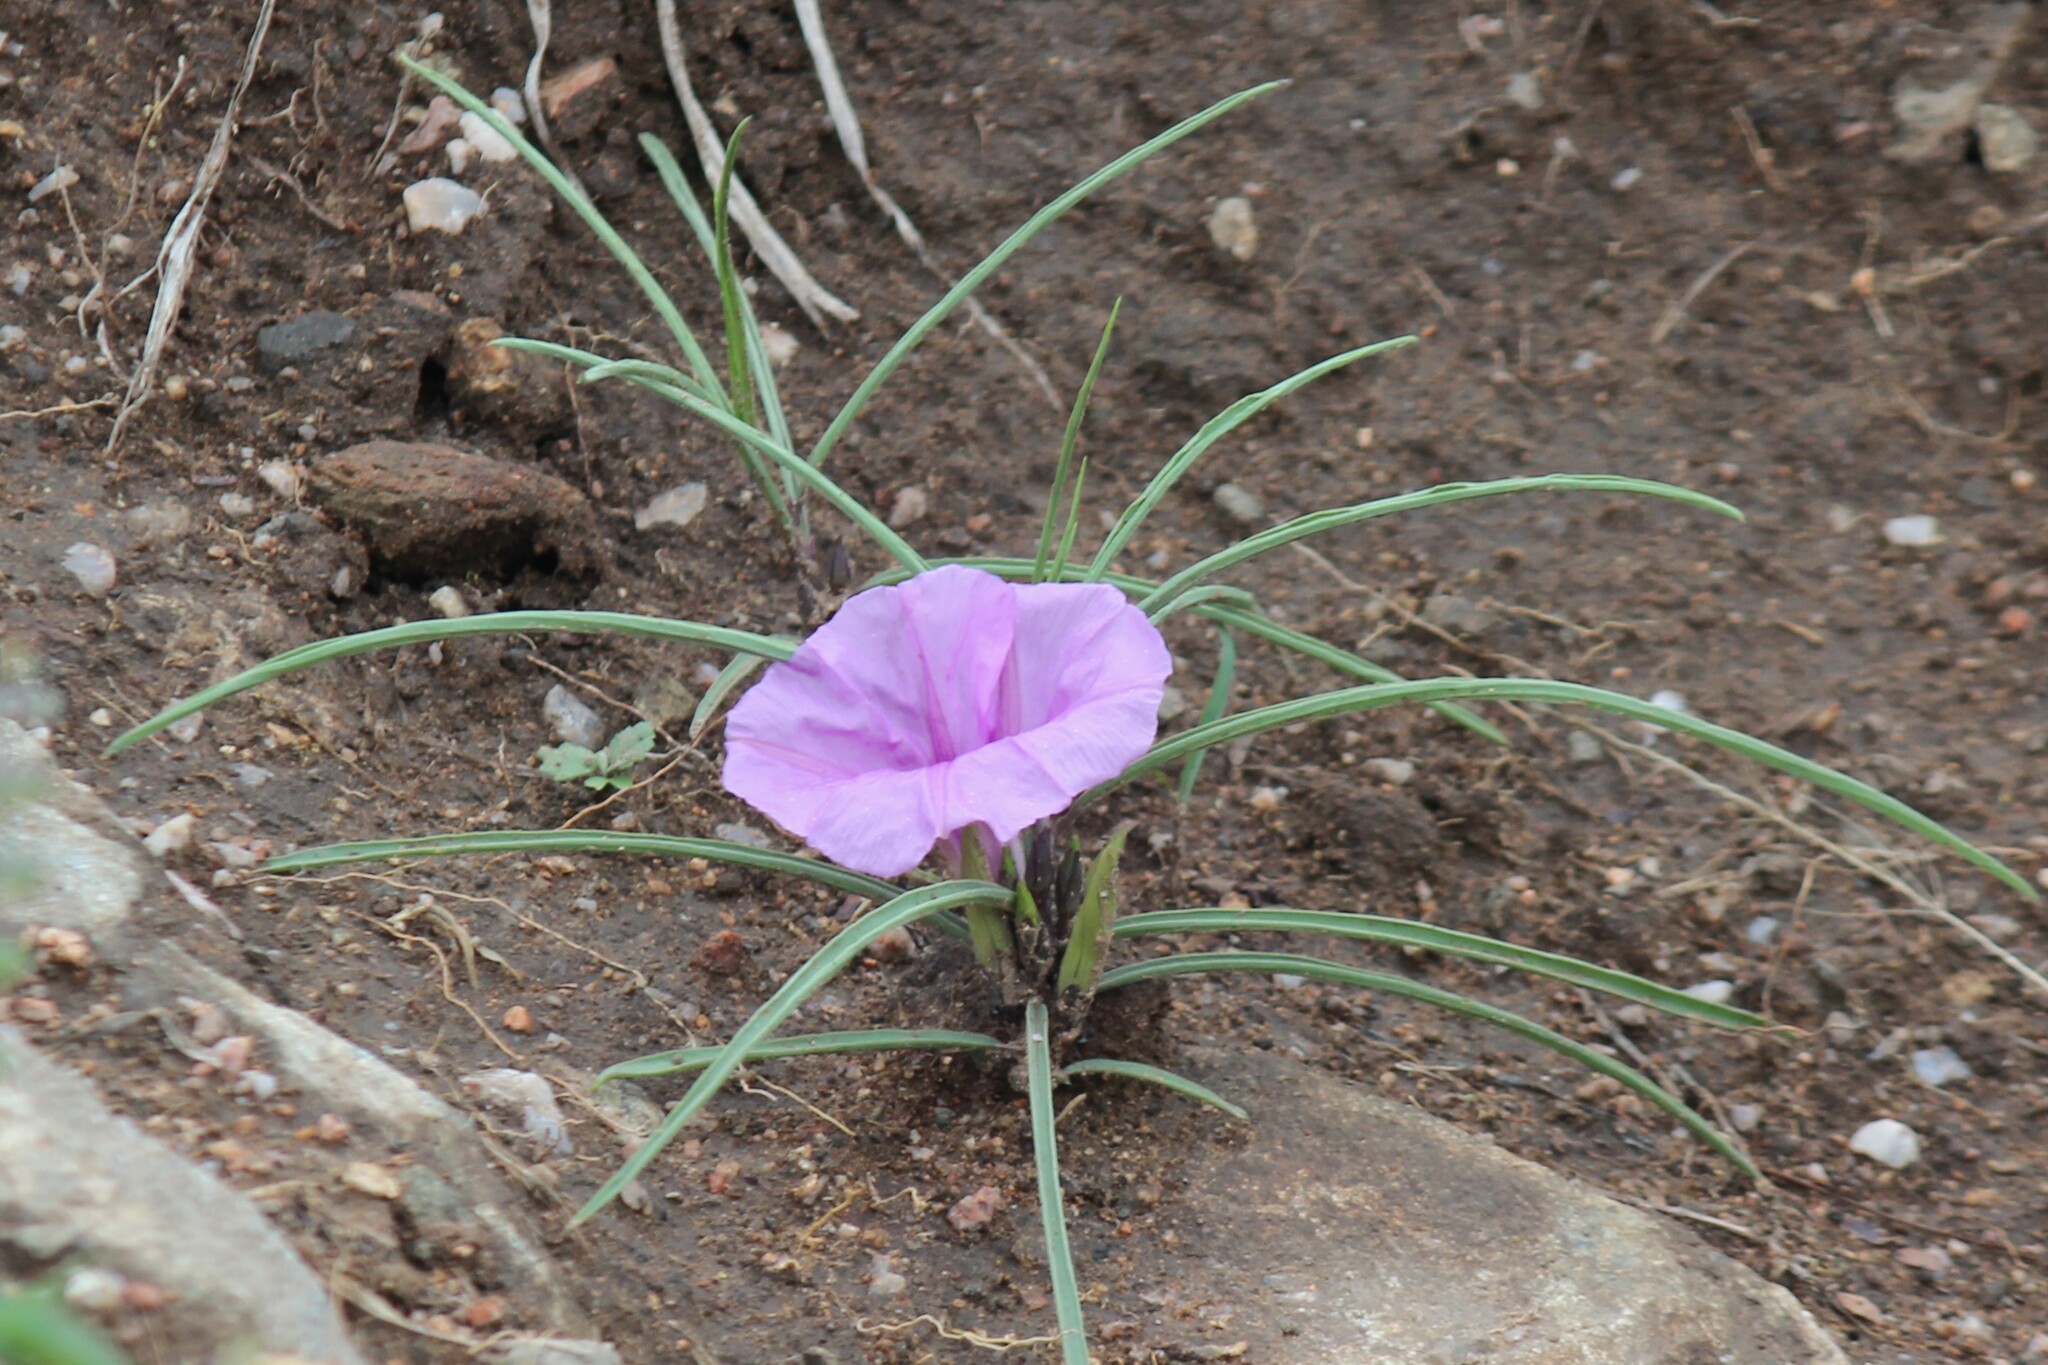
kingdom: Plantae
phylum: Tracheophyta
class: Magnoliopsida
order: Solanales
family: Convolvulaceae
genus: Ipomoea
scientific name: Ipomoea bolusiana
